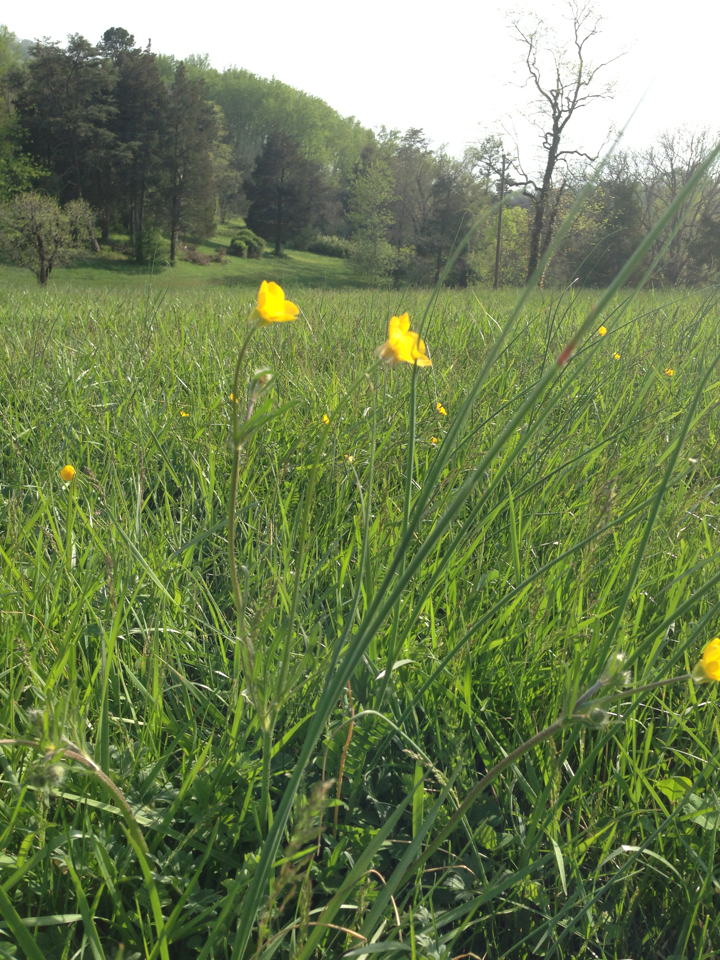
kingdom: Plantae
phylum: Tracheophyta
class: Magnoliopsida
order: Ranunculales
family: Ranunculaceae
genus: Ranunculus
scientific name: Ranunculus bulbosus
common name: Bulbous buttercup
